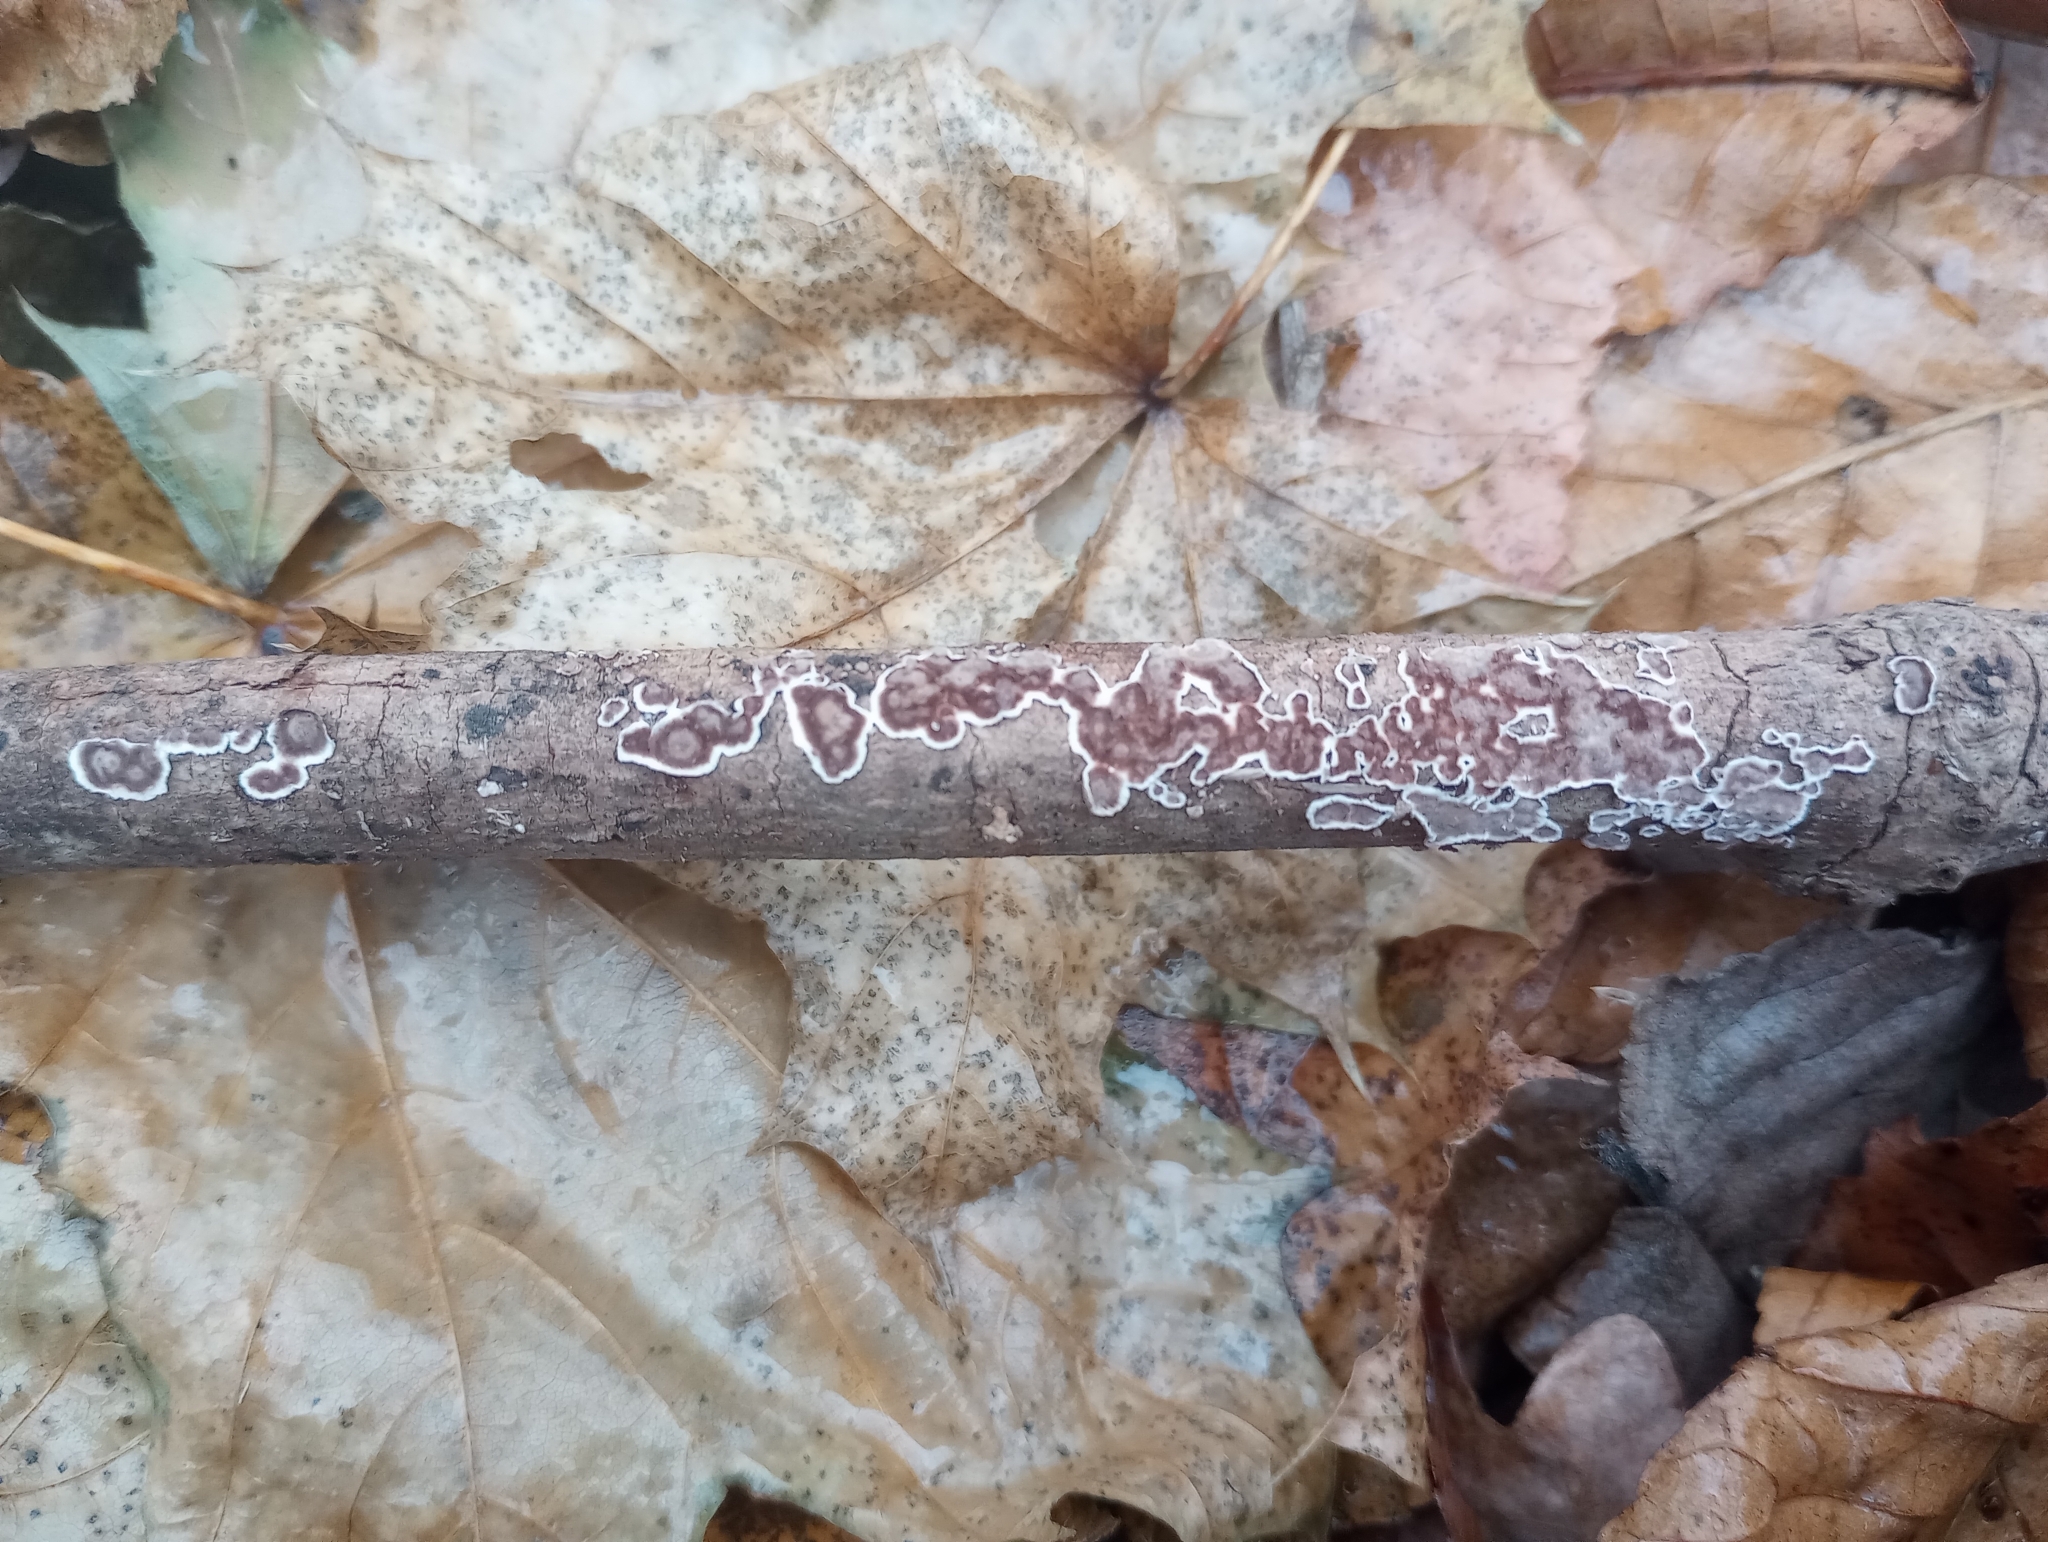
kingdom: Fungi
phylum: Basidiomycota
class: Agaricomycetes
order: Russulales
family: Peniophoraceae
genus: Peniophora
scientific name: Peniophora albobadia
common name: Giraffe spots
